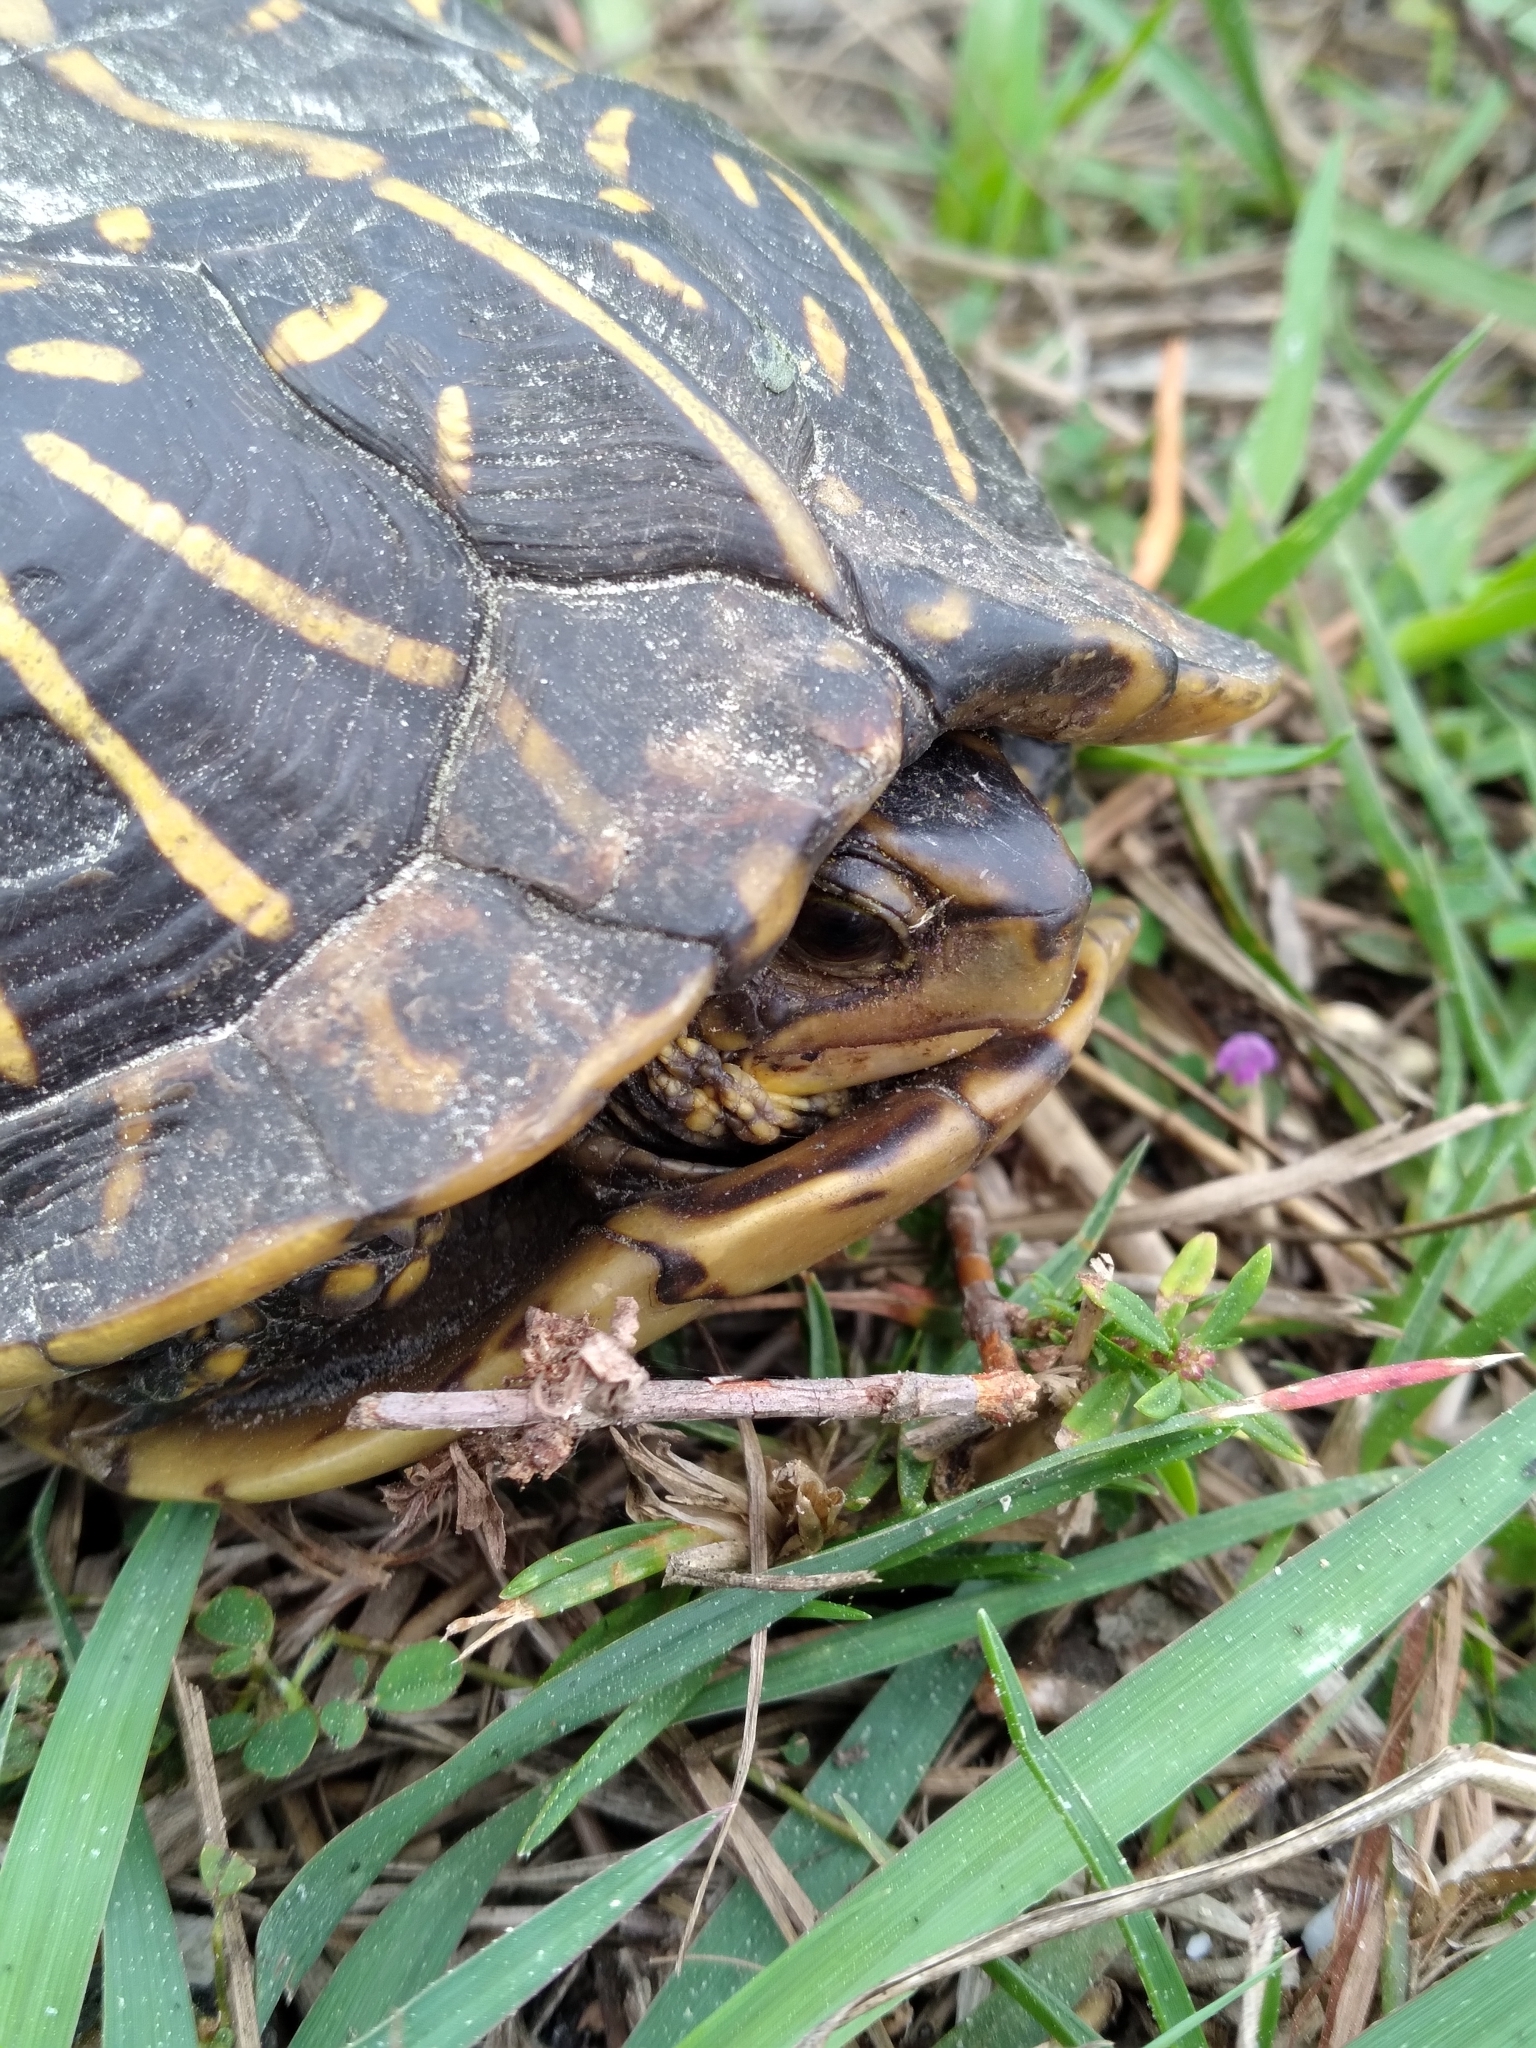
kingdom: Animalia
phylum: Chordata
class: Testudines
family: Emydidae
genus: Terrapene
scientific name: Terrapene carolina
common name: Common box turtle
